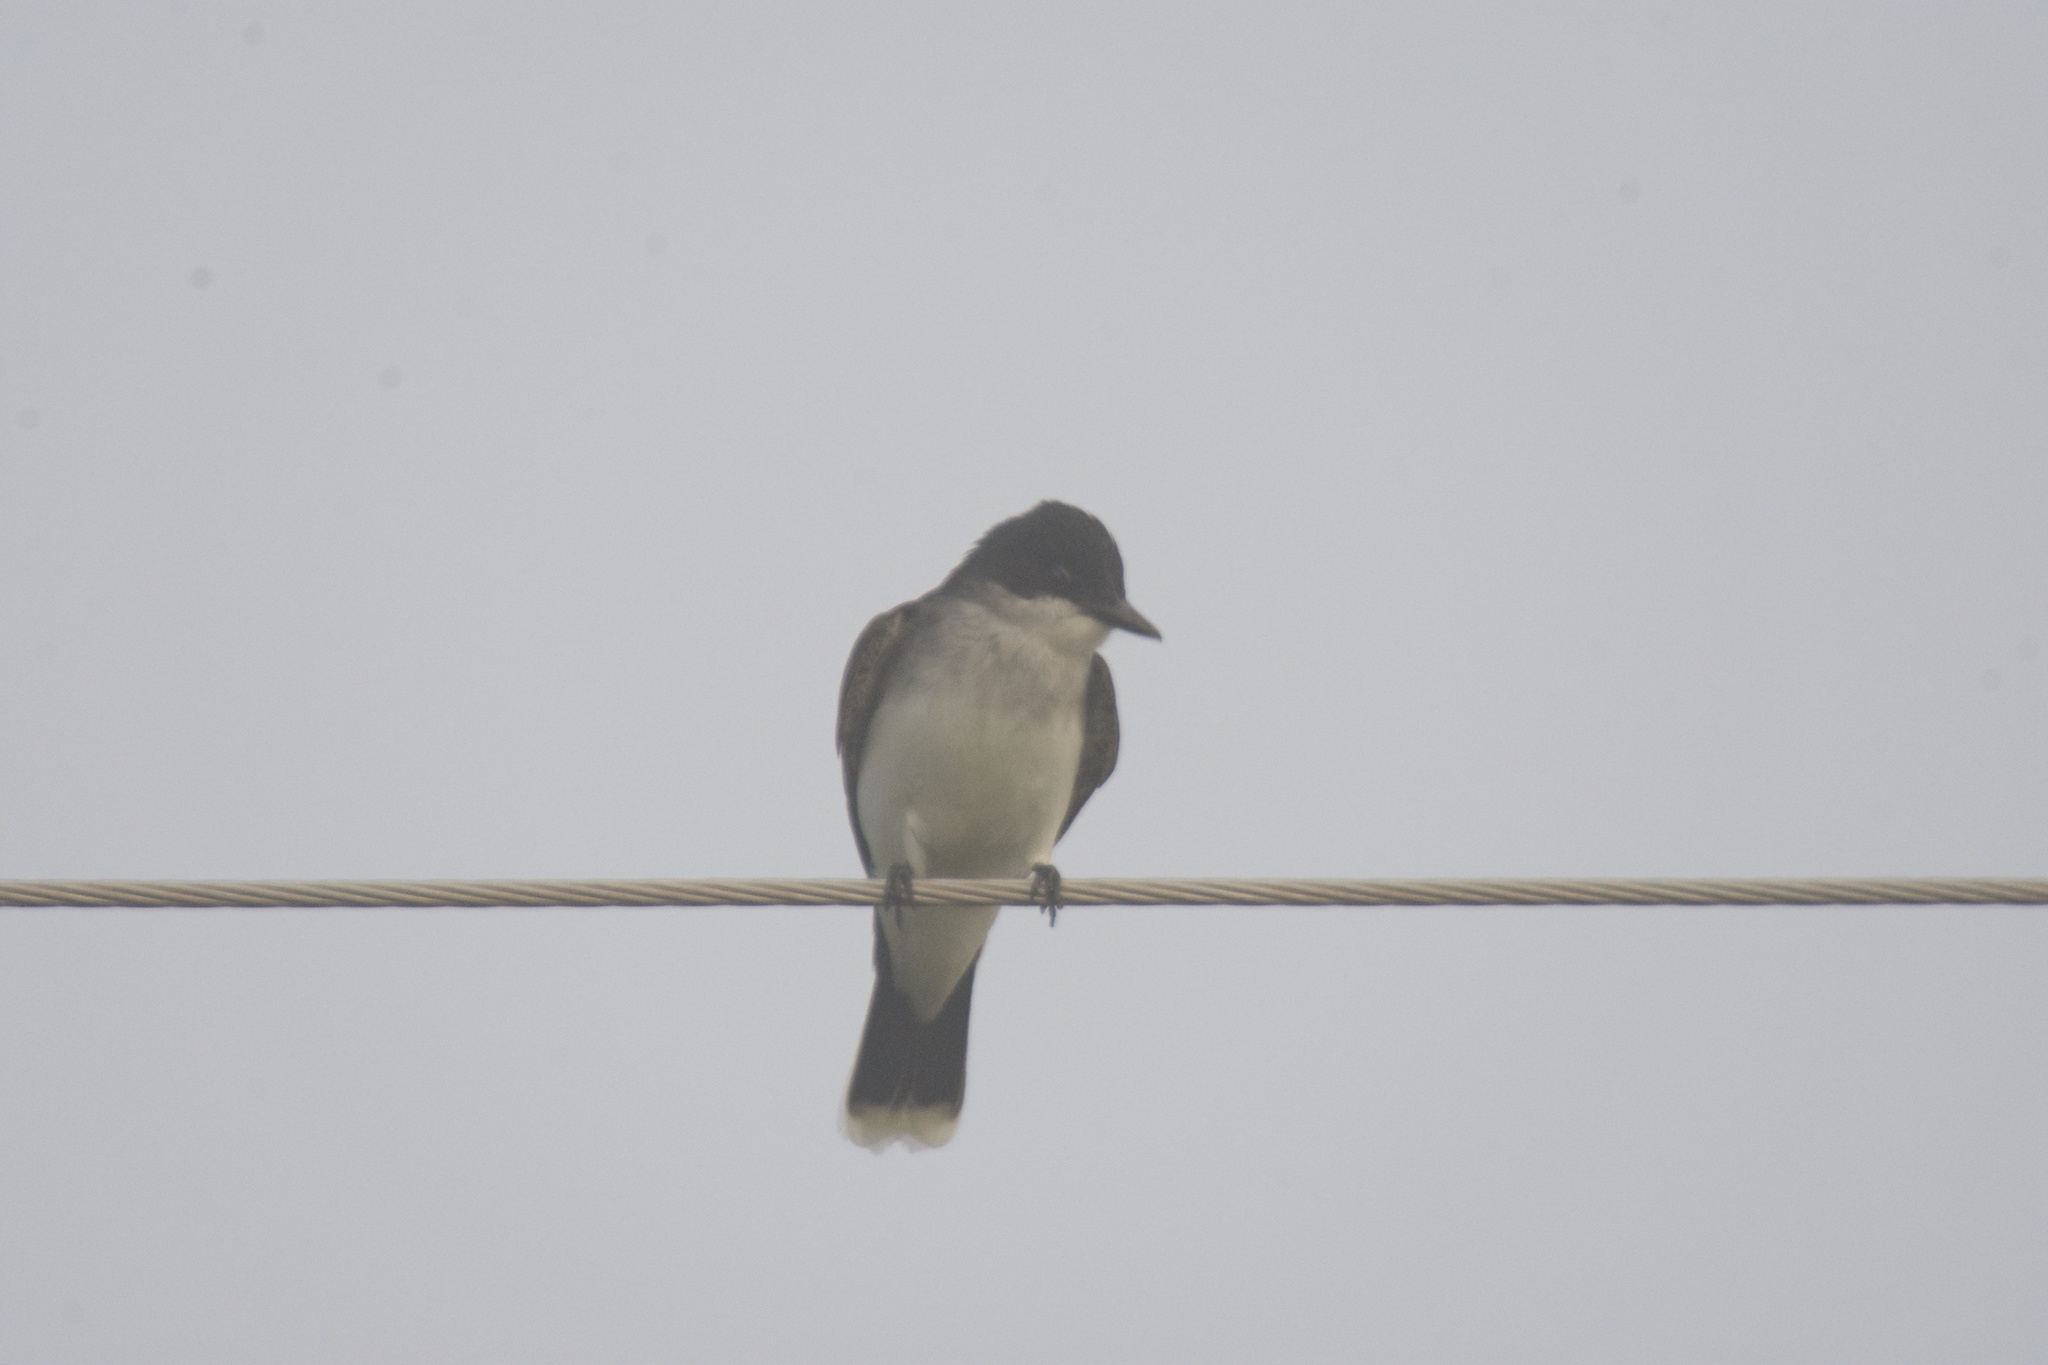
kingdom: Animalia
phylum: Chordata
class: Aves
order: Passeriformes
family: Tyrannidae
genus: Tyrannus
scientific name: Tyrannus tyrannus
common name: Eastern kingbird
